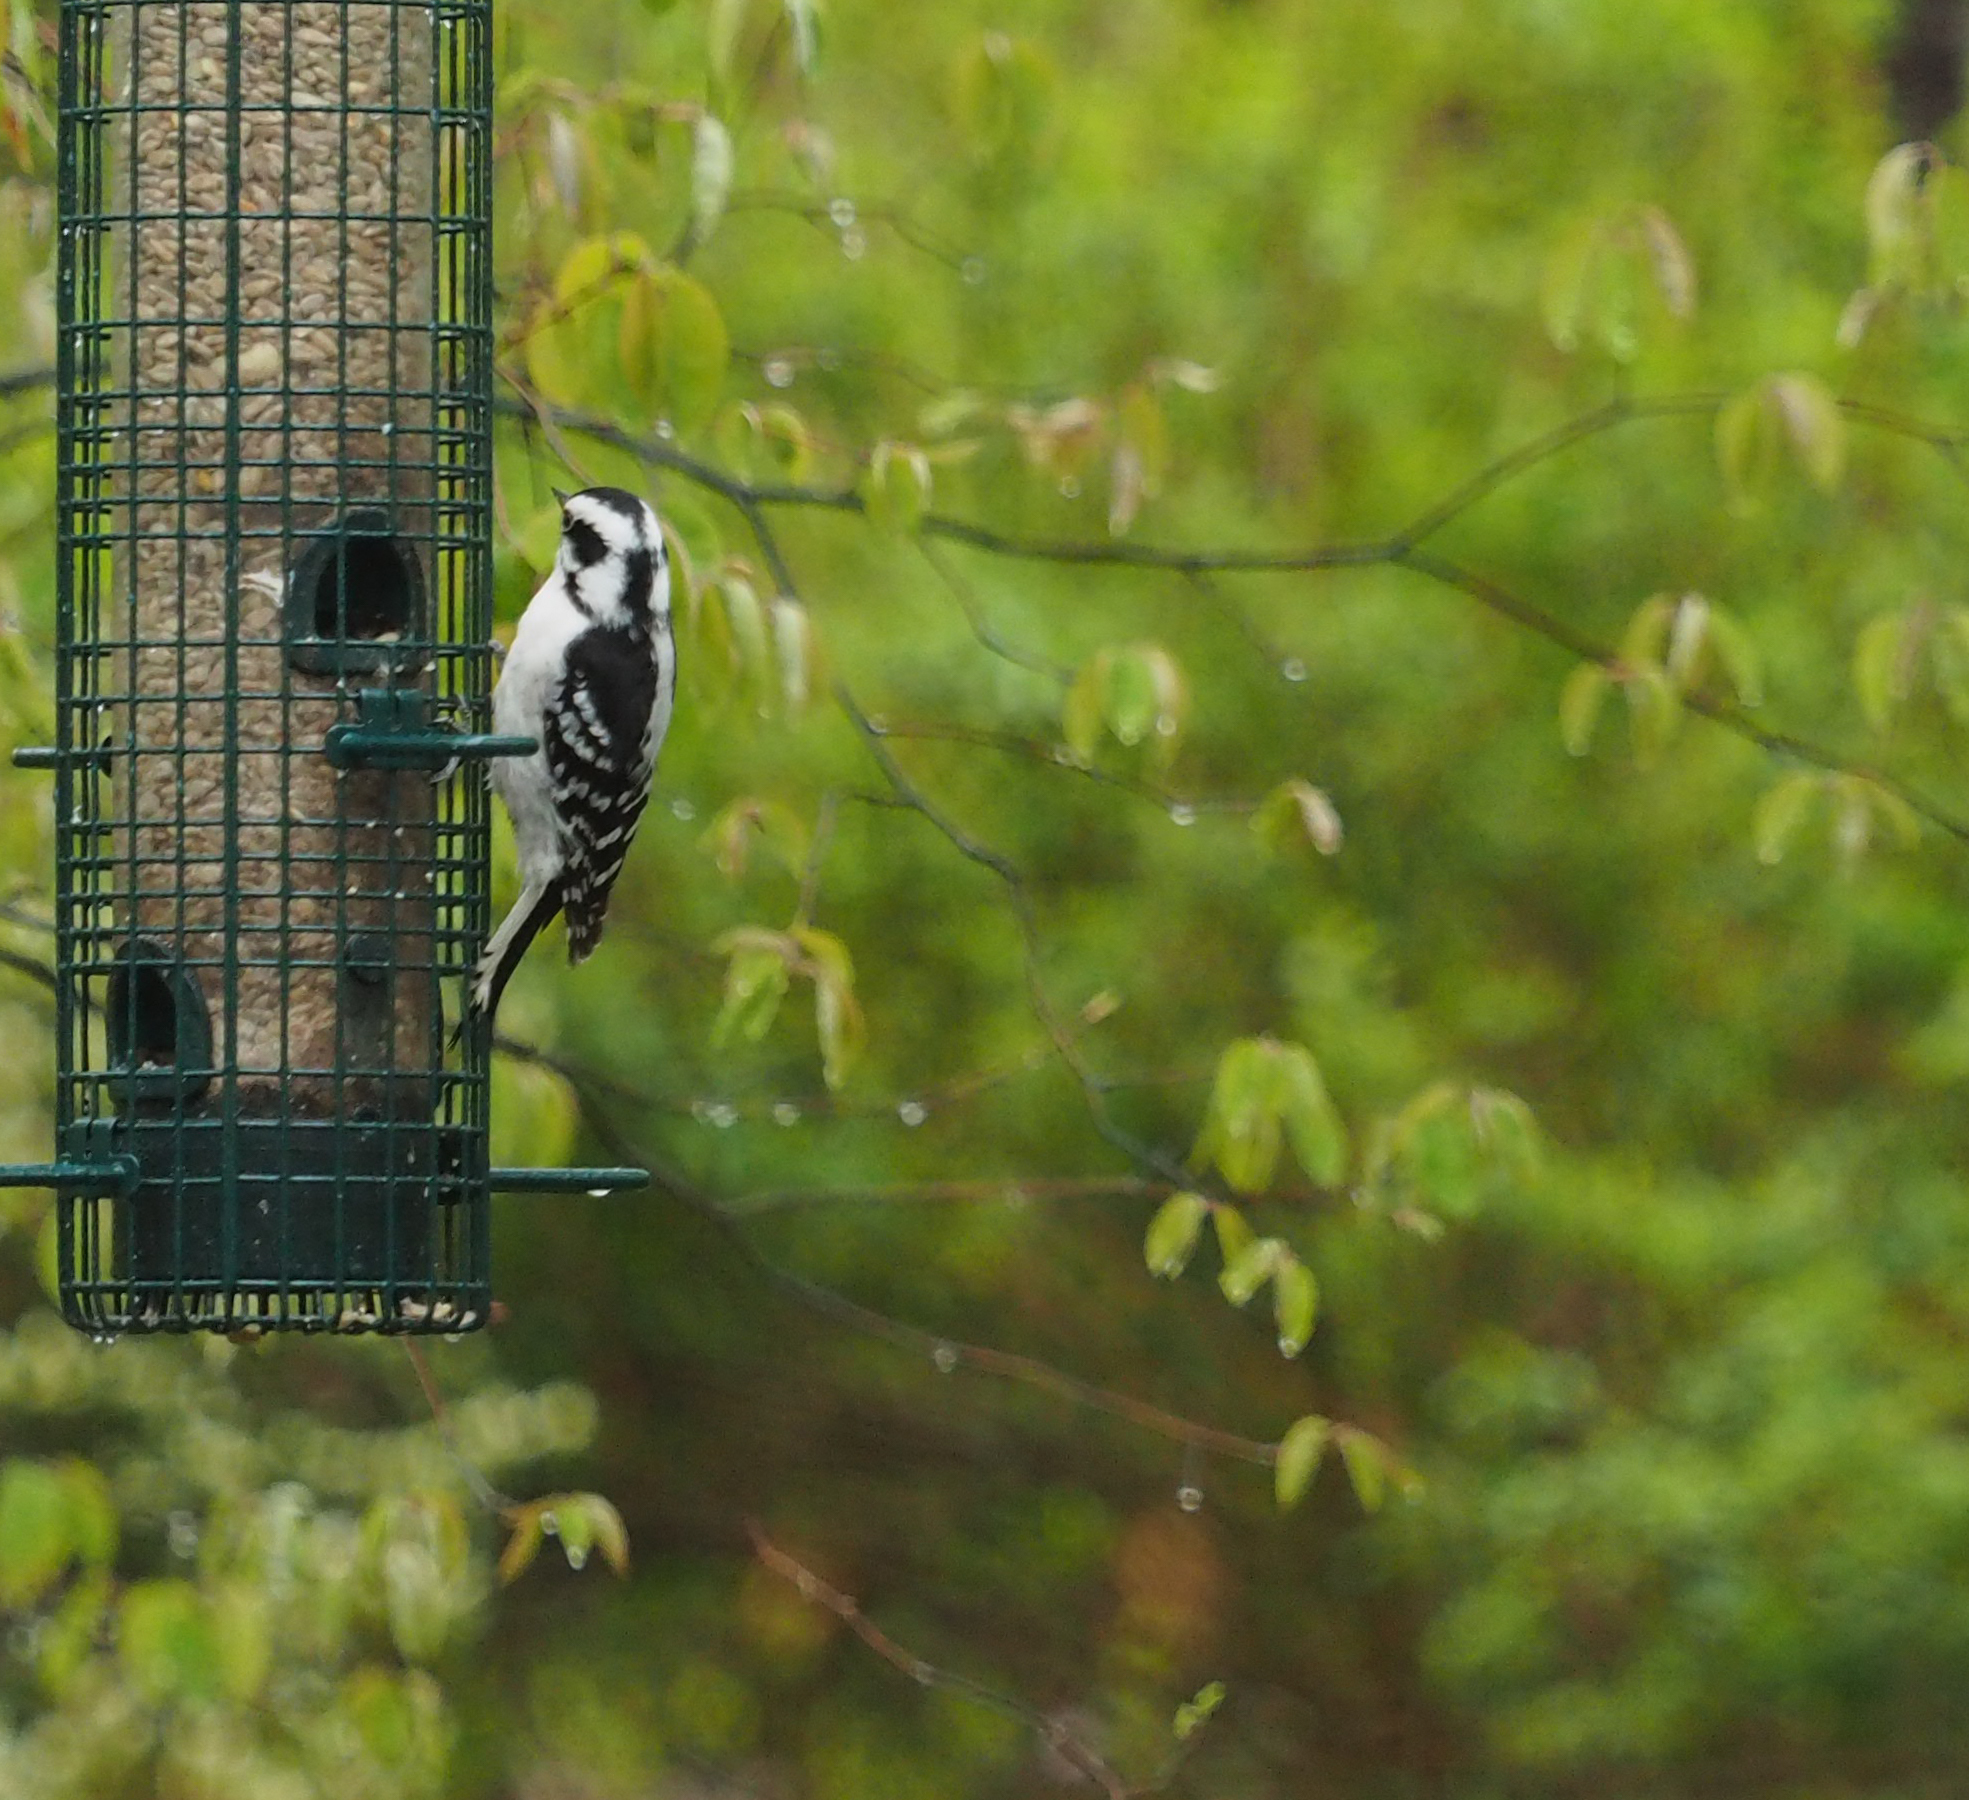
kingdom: Animalia
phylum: Chordata
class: Aves
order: Piciformes
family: Picidae
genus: Dryobates
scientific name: Dryobates pubescens
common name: Downy woodpecker
